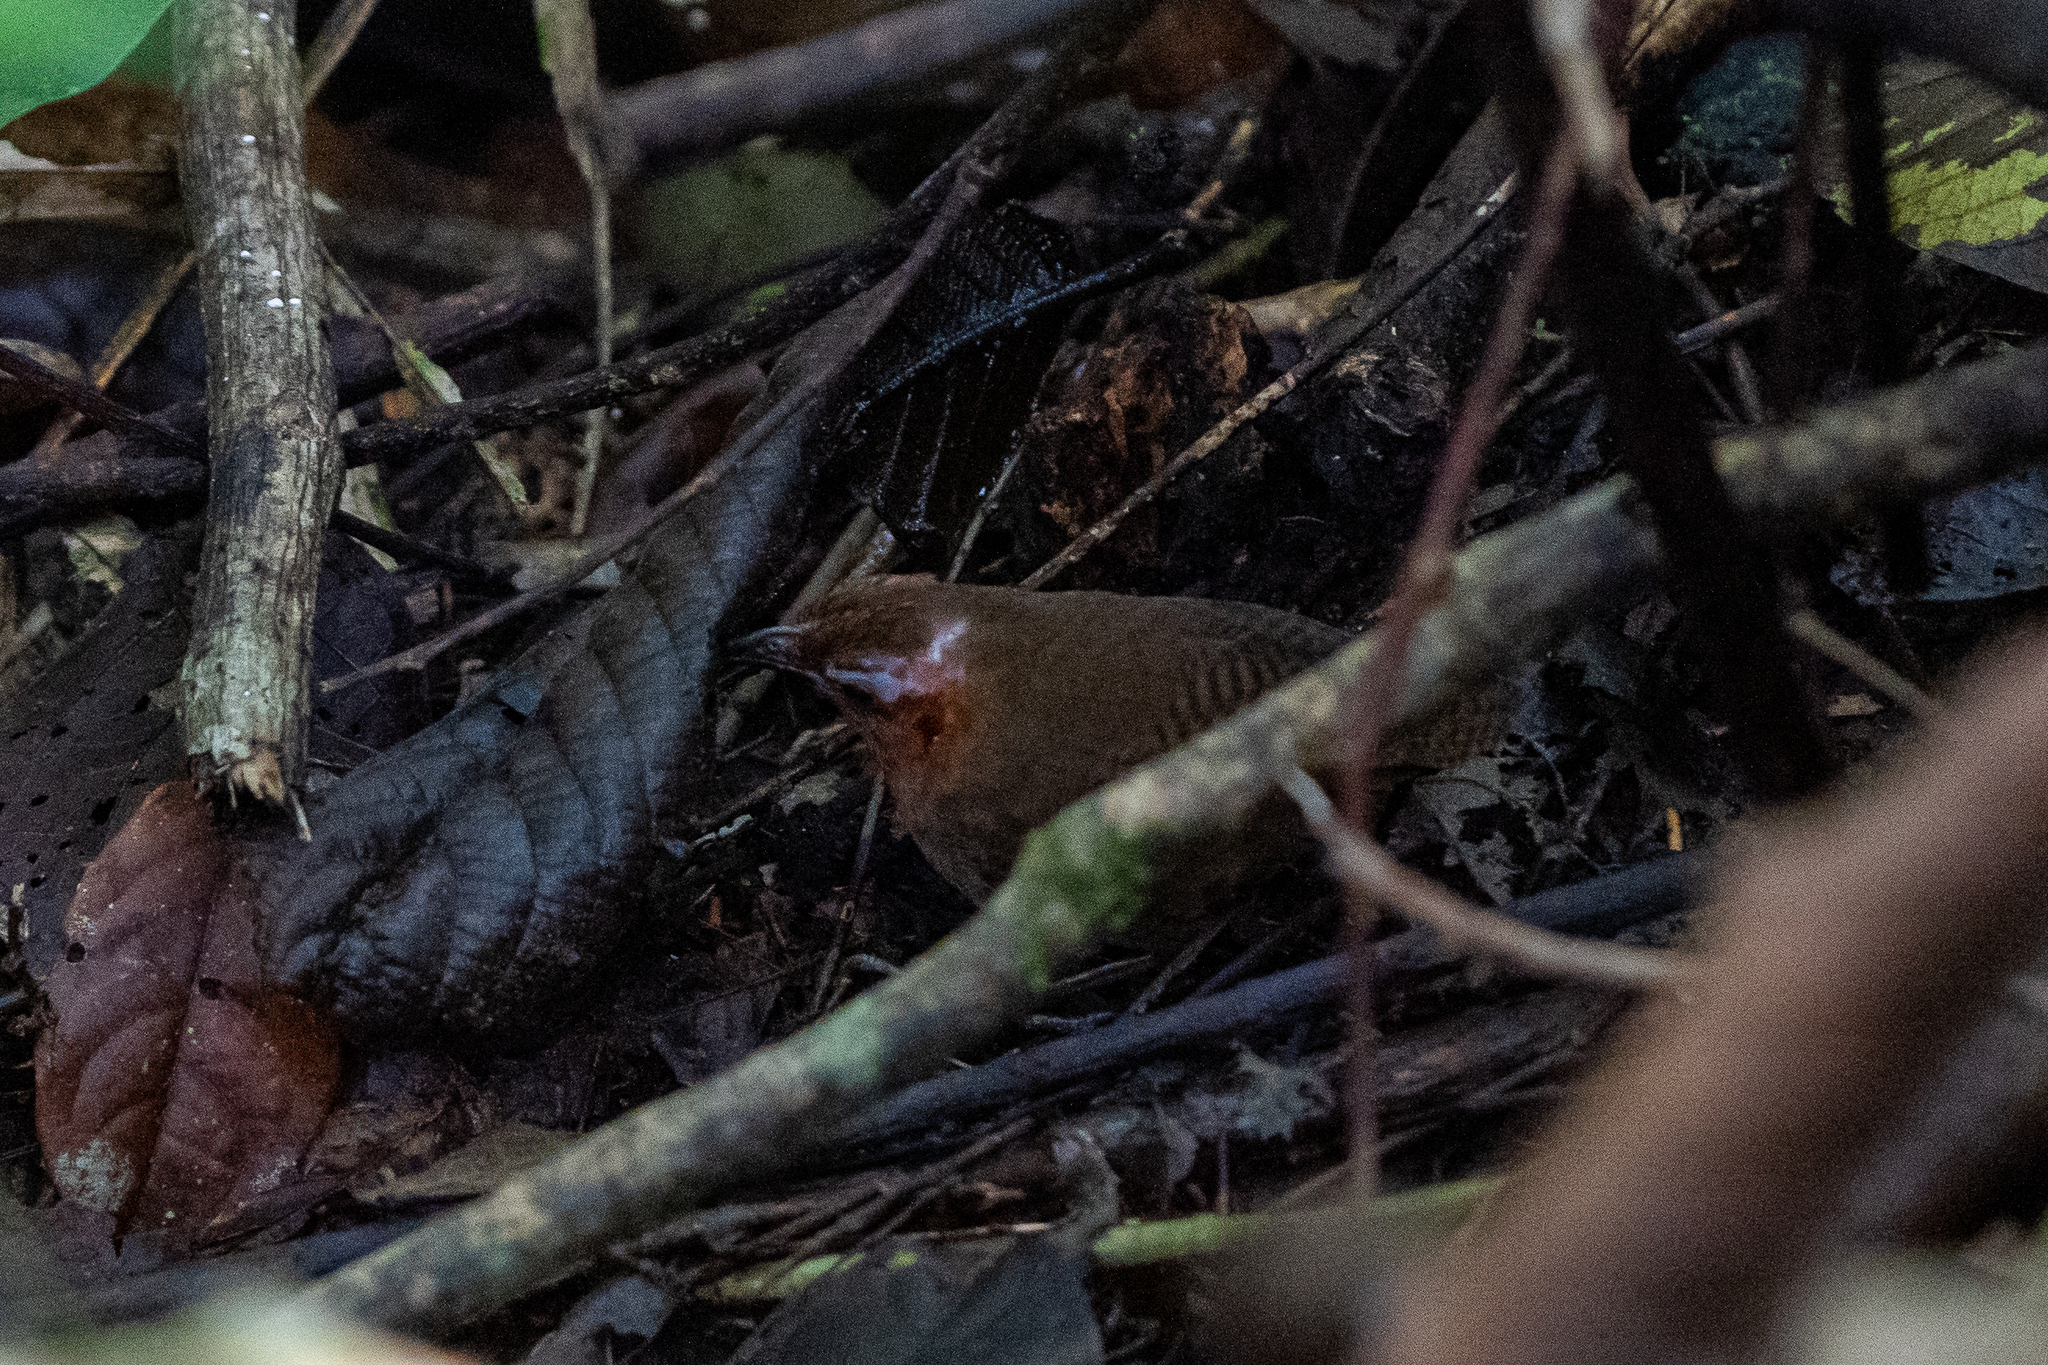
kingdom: Animalia
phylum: Chordata
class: Aves
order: Passeriformes
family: Troglodytidae
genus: Cyphorhinus
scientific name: Cyphorhinus phaeocephalus
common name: Song wren
